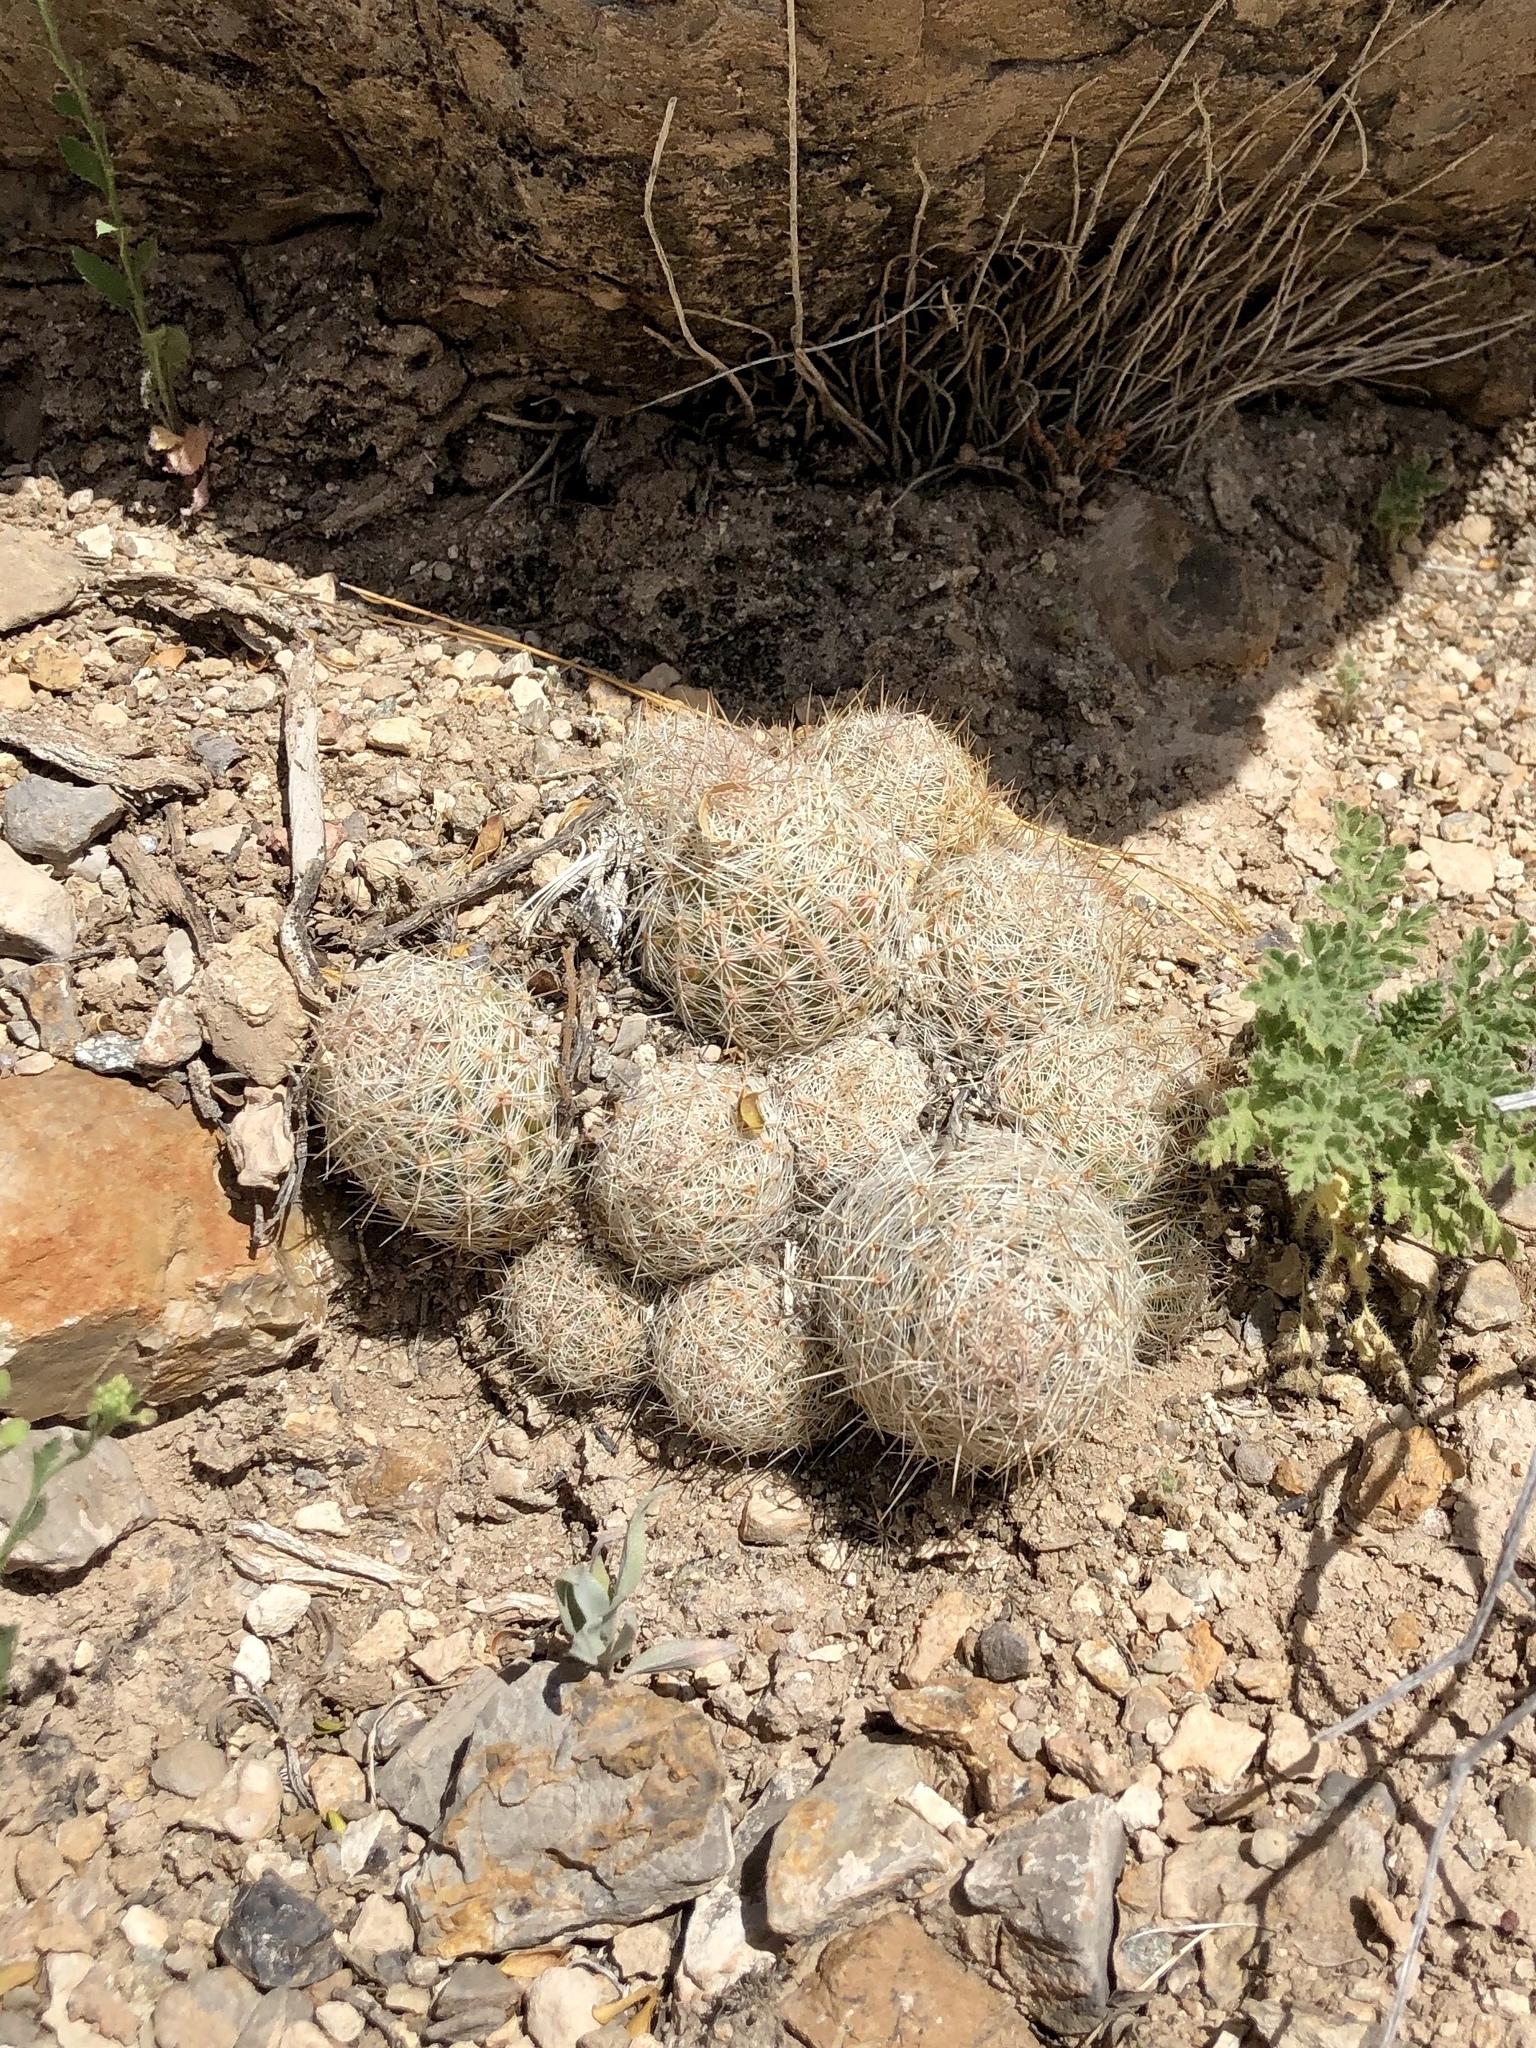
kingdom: Plantae
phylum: Tracheophyta
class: Magnoliopsida
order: Caryophyllales
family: Cactaceae
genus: Pelecyphora
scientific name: Pelecyphora tuberculosa
